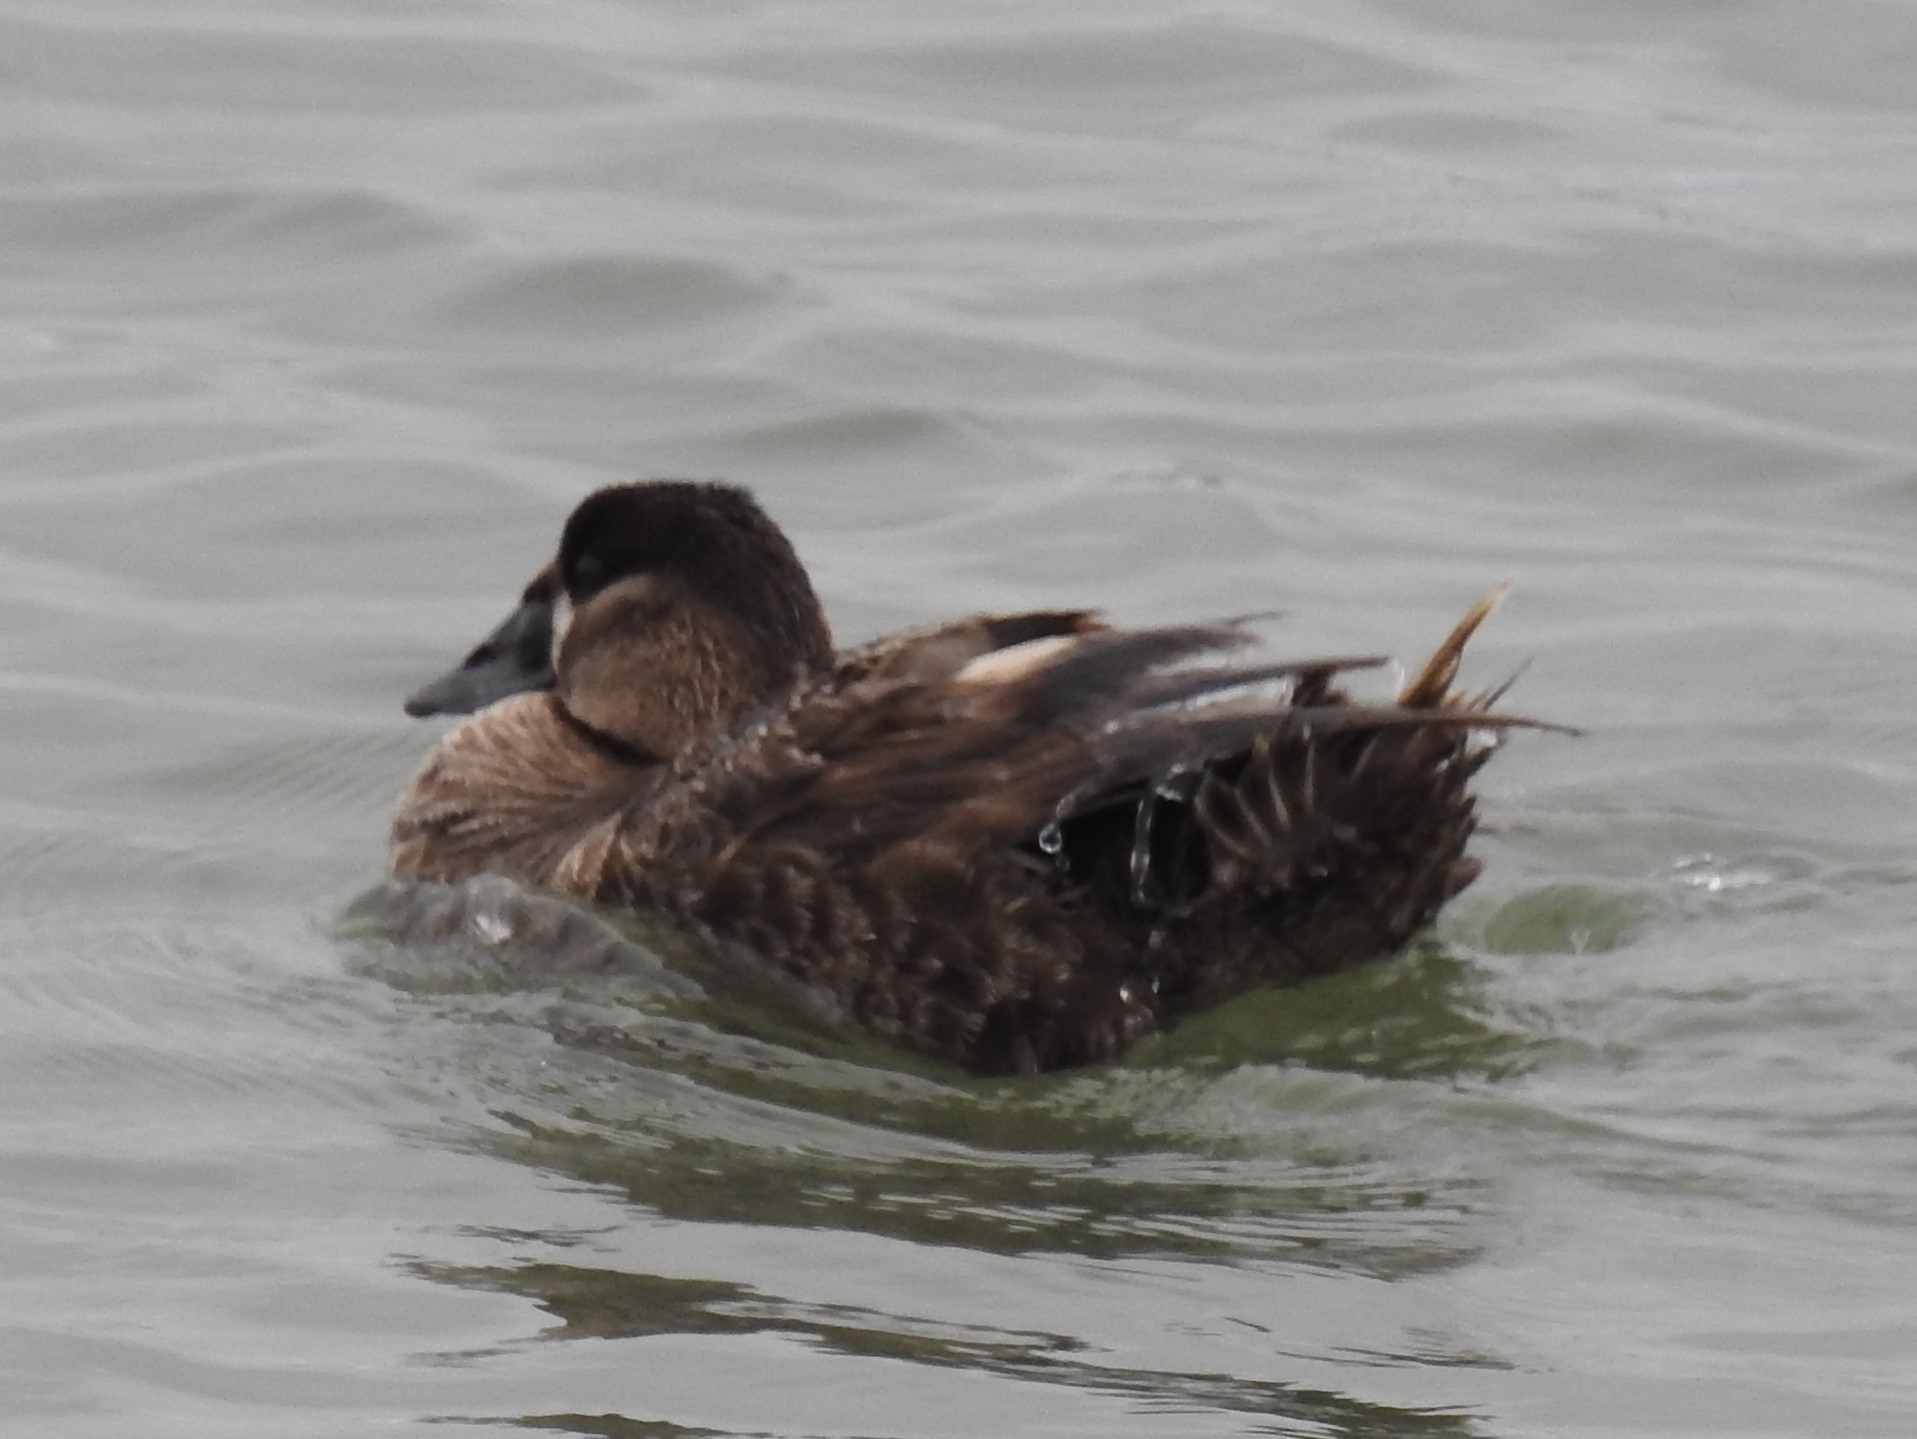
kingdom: Animalia
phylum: Chordata
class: Aves
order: Anseriformes
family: Anatidae
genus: Melanitta
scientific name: Melanitta perspicillata
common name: Surf scoter
